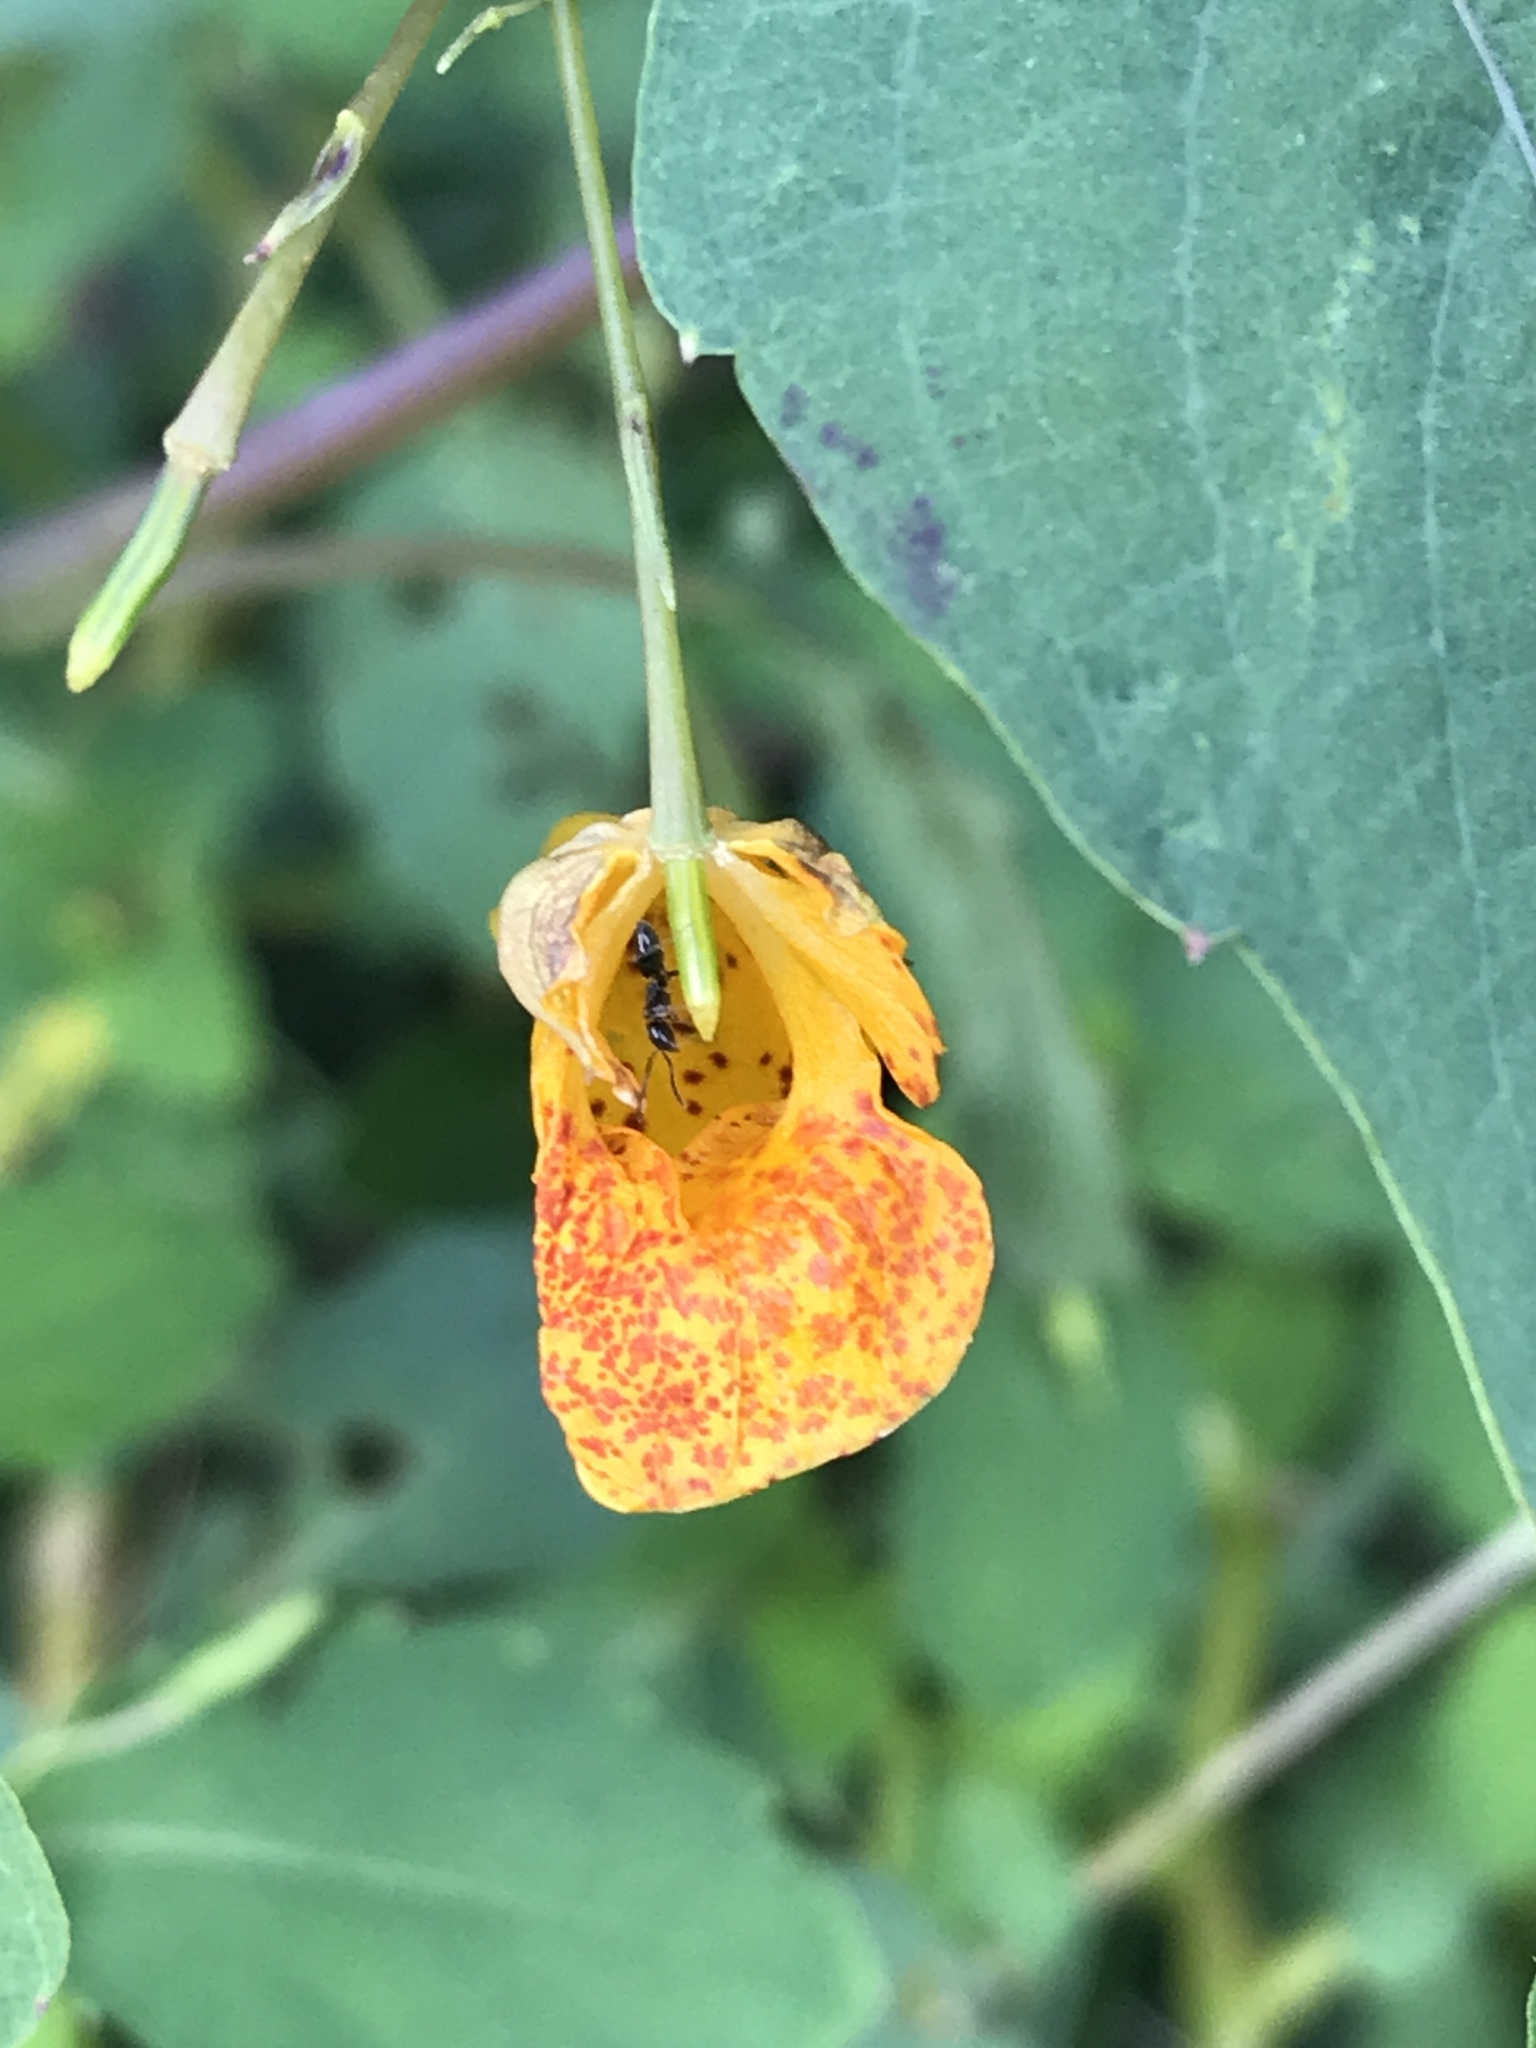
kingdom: Plantae
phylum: Tracheophyta
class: Magnoliopsida
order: Ericales
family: Balsaminaceae
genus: Impatiens
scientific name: Impatiens capensis
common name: Orange balsam
